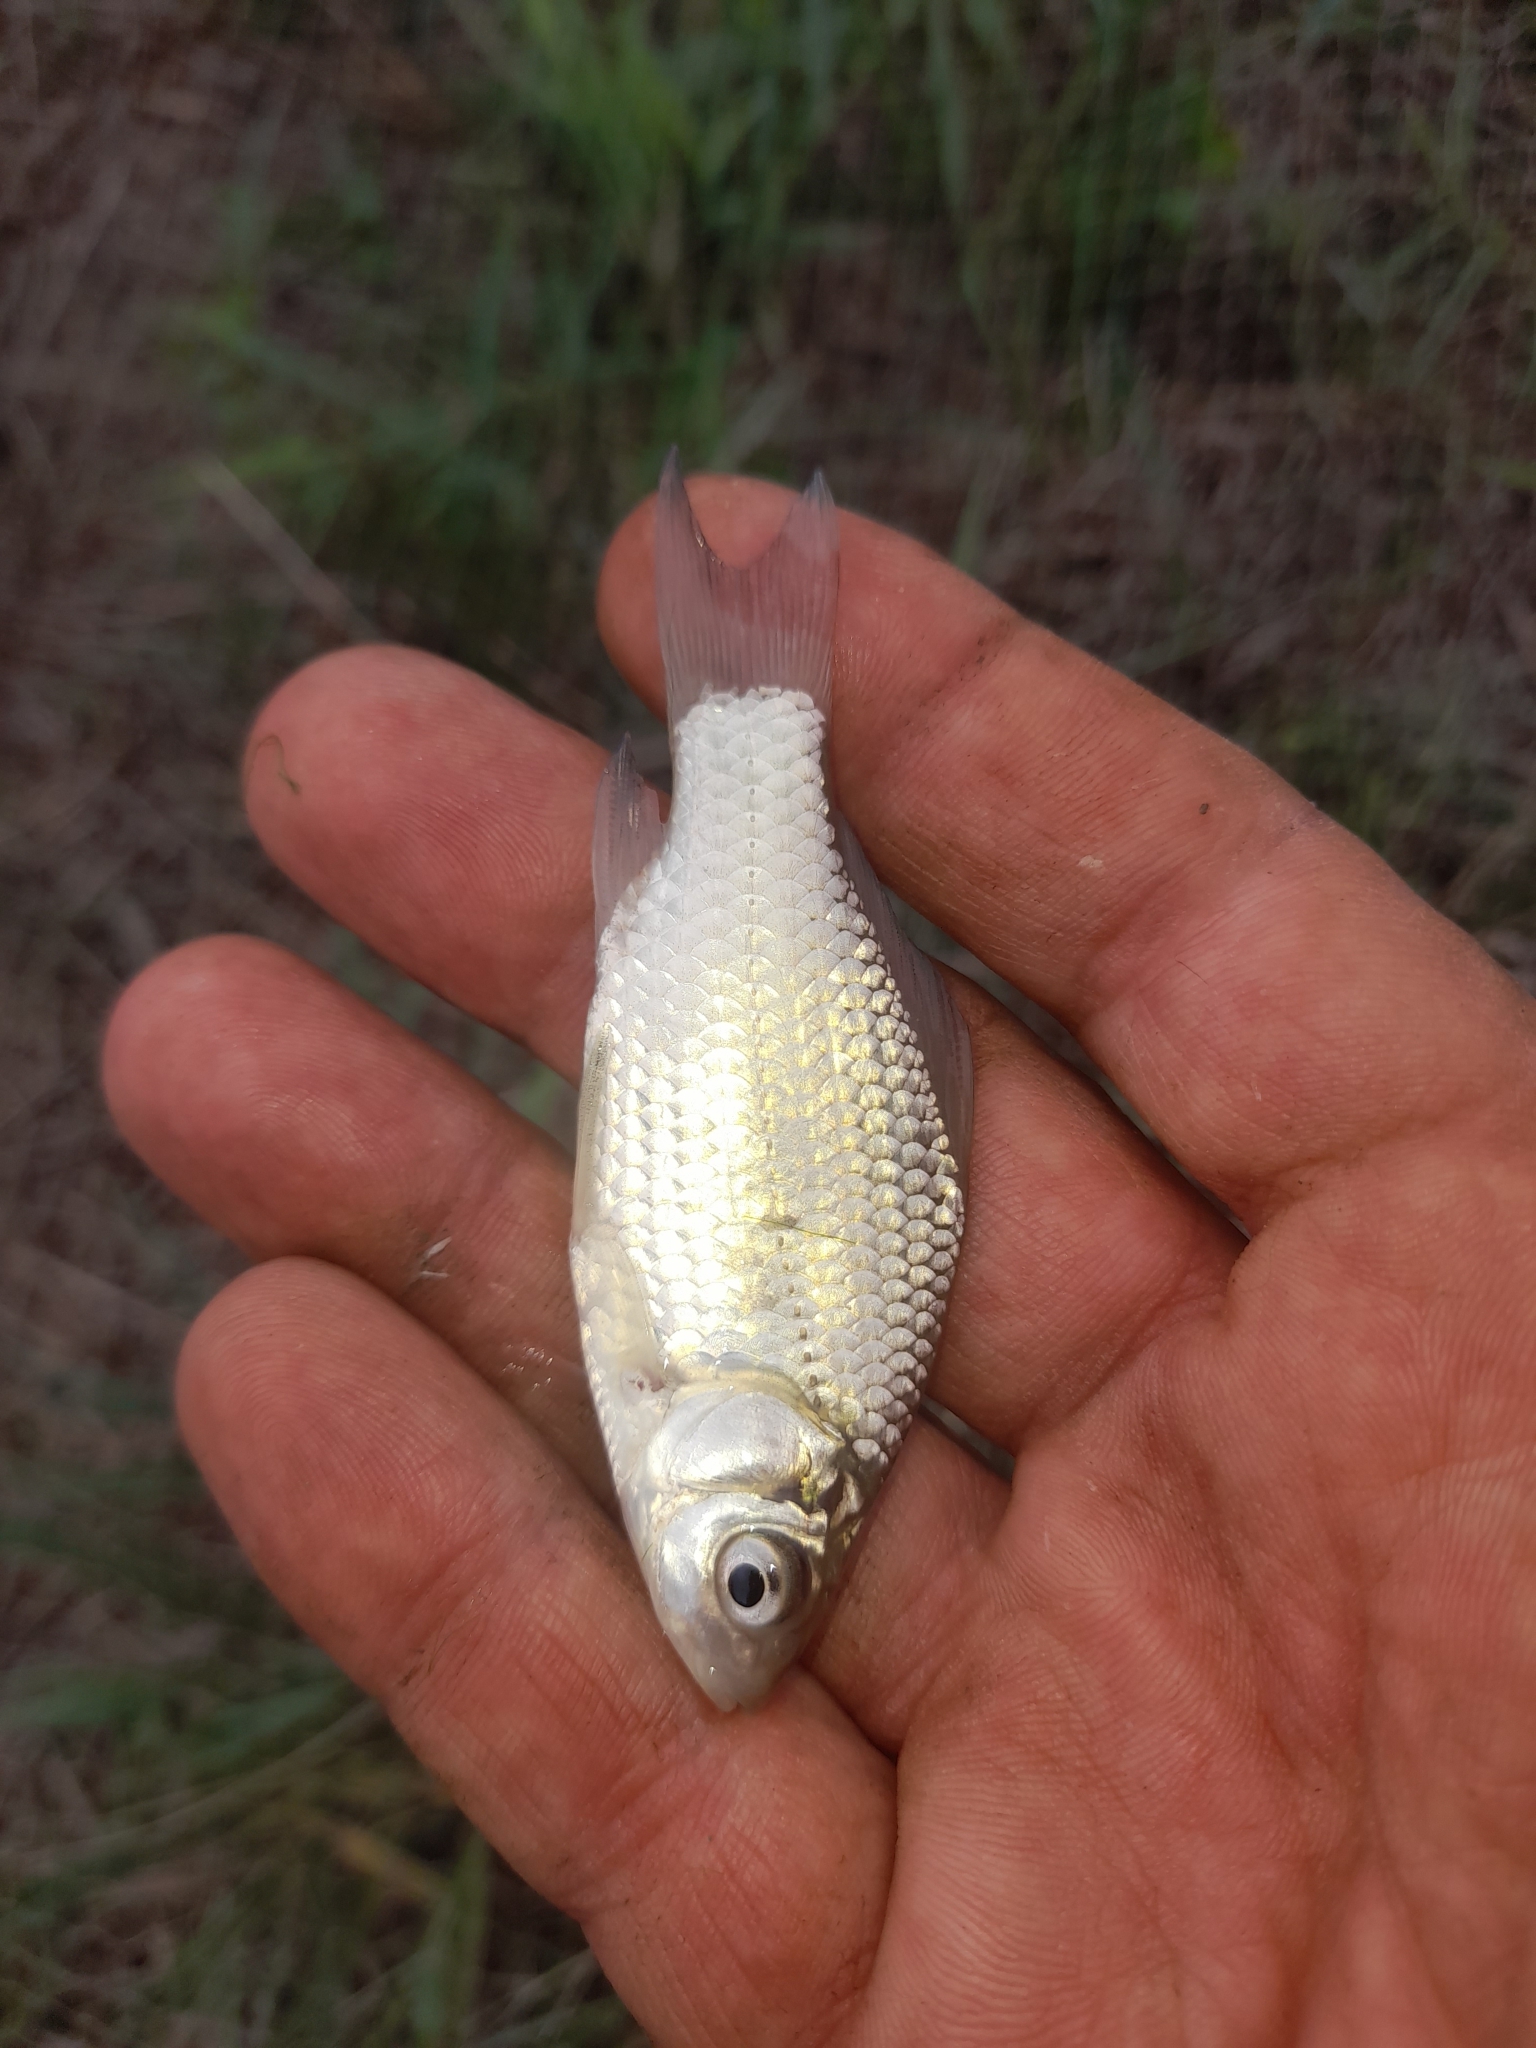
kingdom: Animalia
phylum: Chordata
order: Cypriniformes
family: Cyprinidae
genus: Carassius
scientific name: Carassius gibelio
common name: Prussian carp
